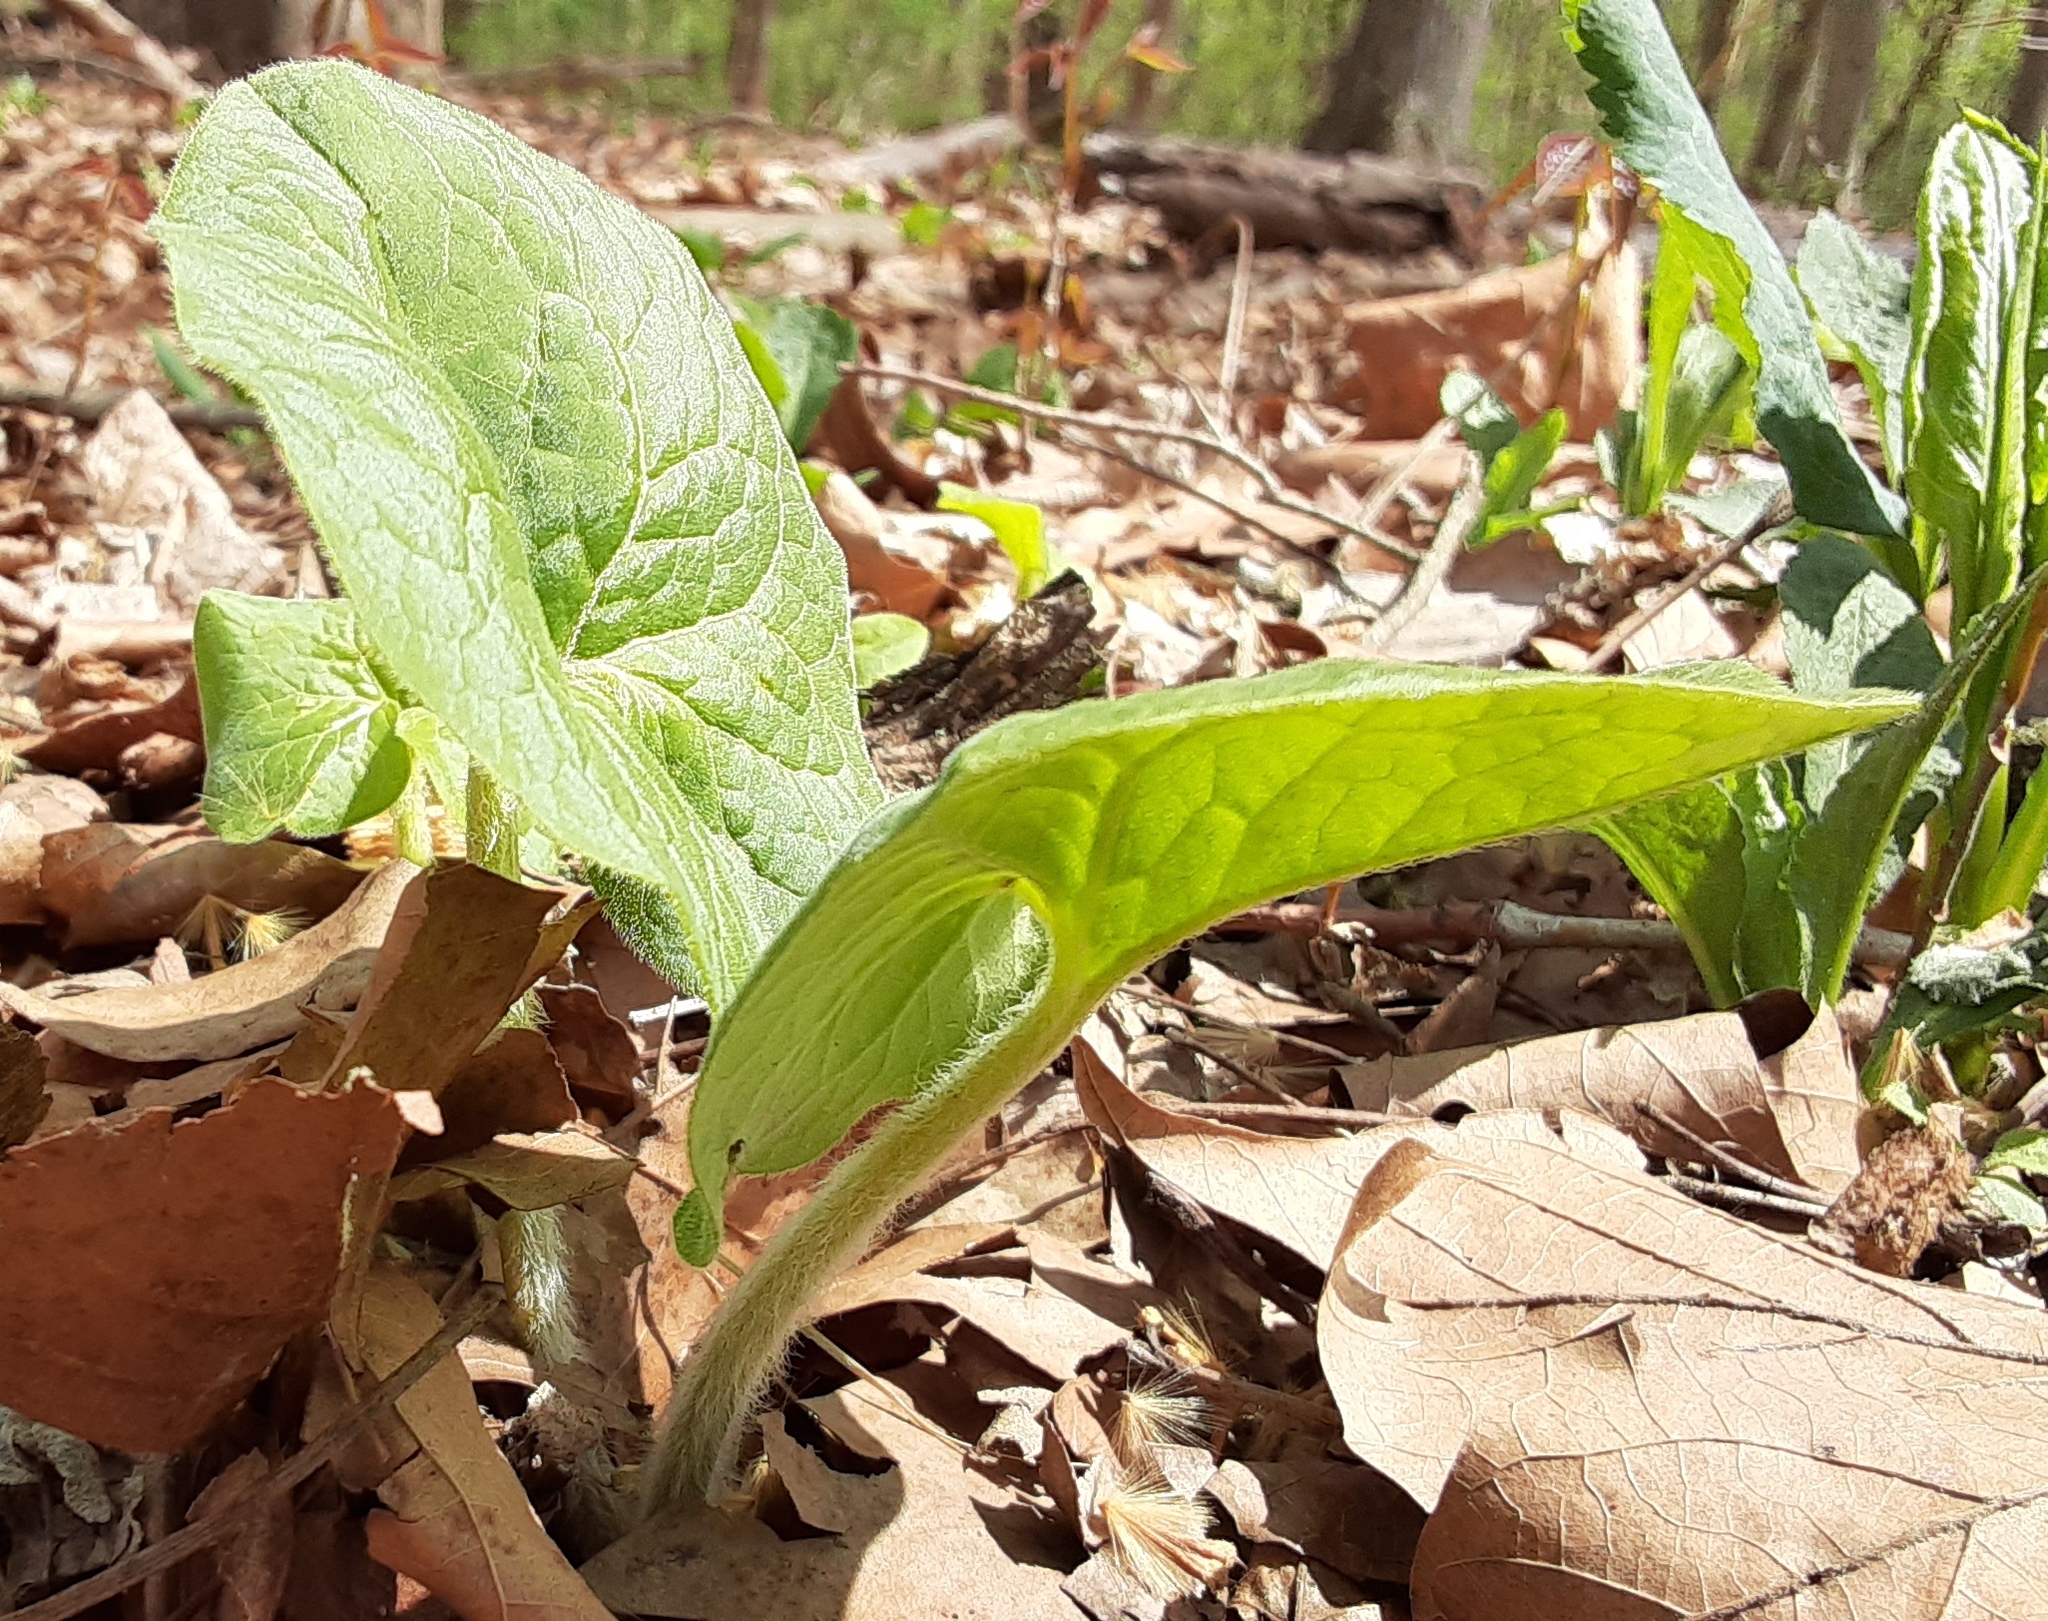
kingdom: Plantae
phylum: Tracheophyta
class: Magnoliopsida
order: Piperales
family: Aristolochiaceae
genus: Asarum
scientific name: Asarum canadense
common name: Wild ginger
